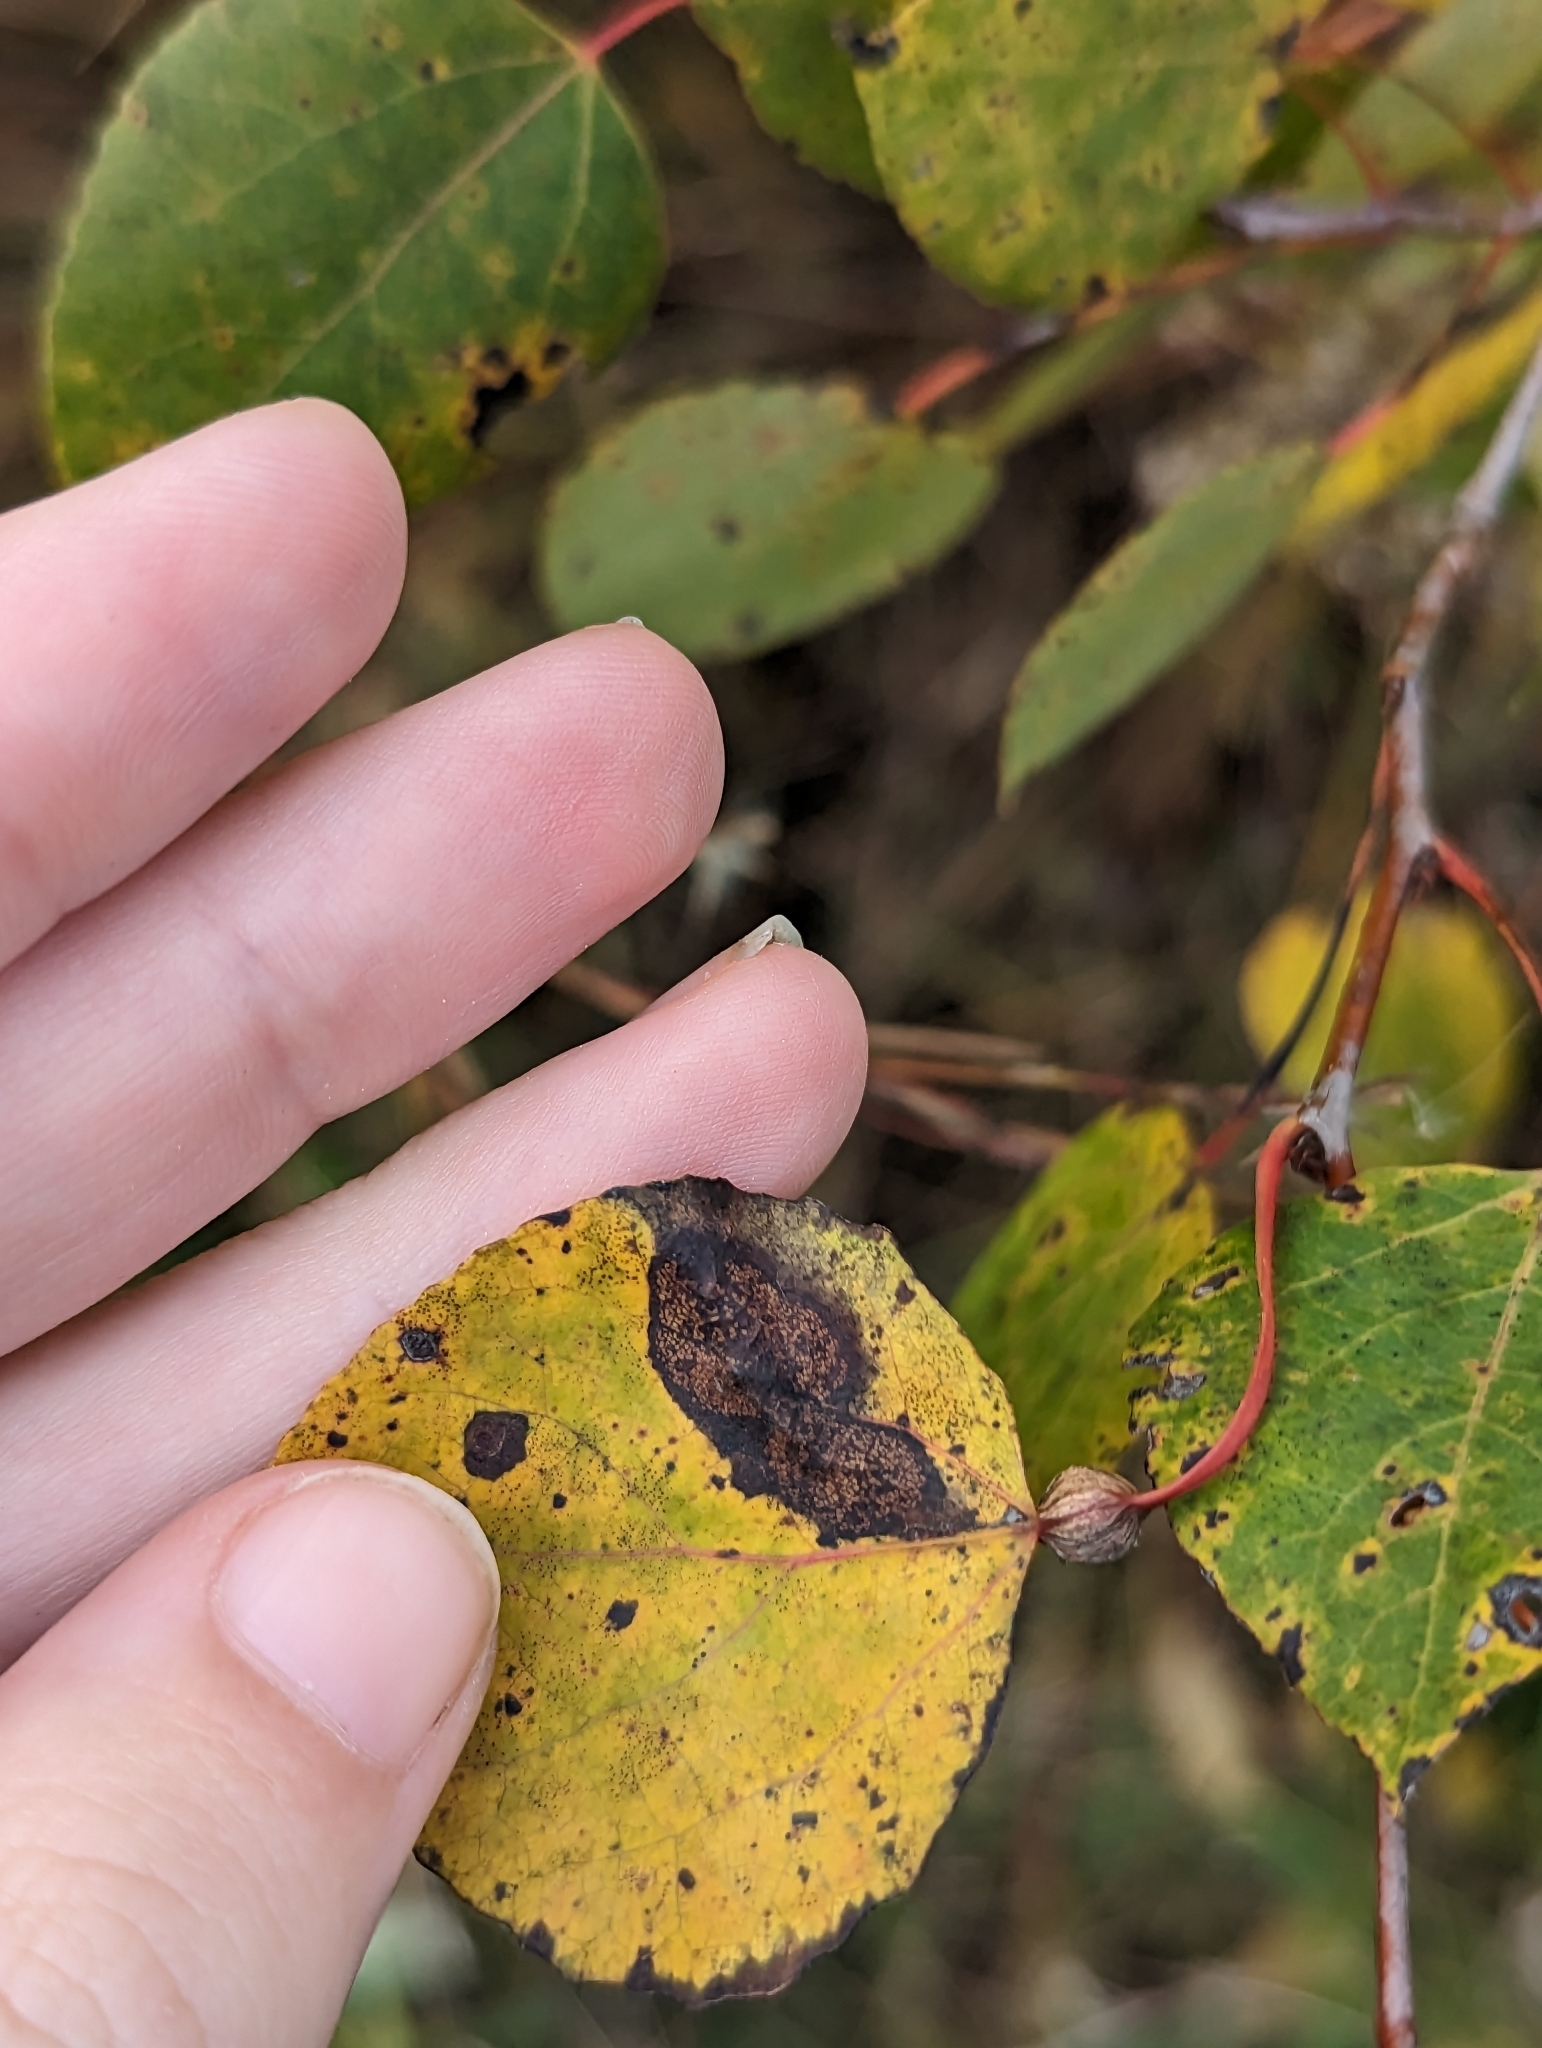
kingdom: Plantae
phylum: Tracheophyta
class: Magnoliopsida
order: Malpighiales
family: Salicaceae
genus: Populus
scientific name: Populus tremuloides
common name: Quaking aspen
